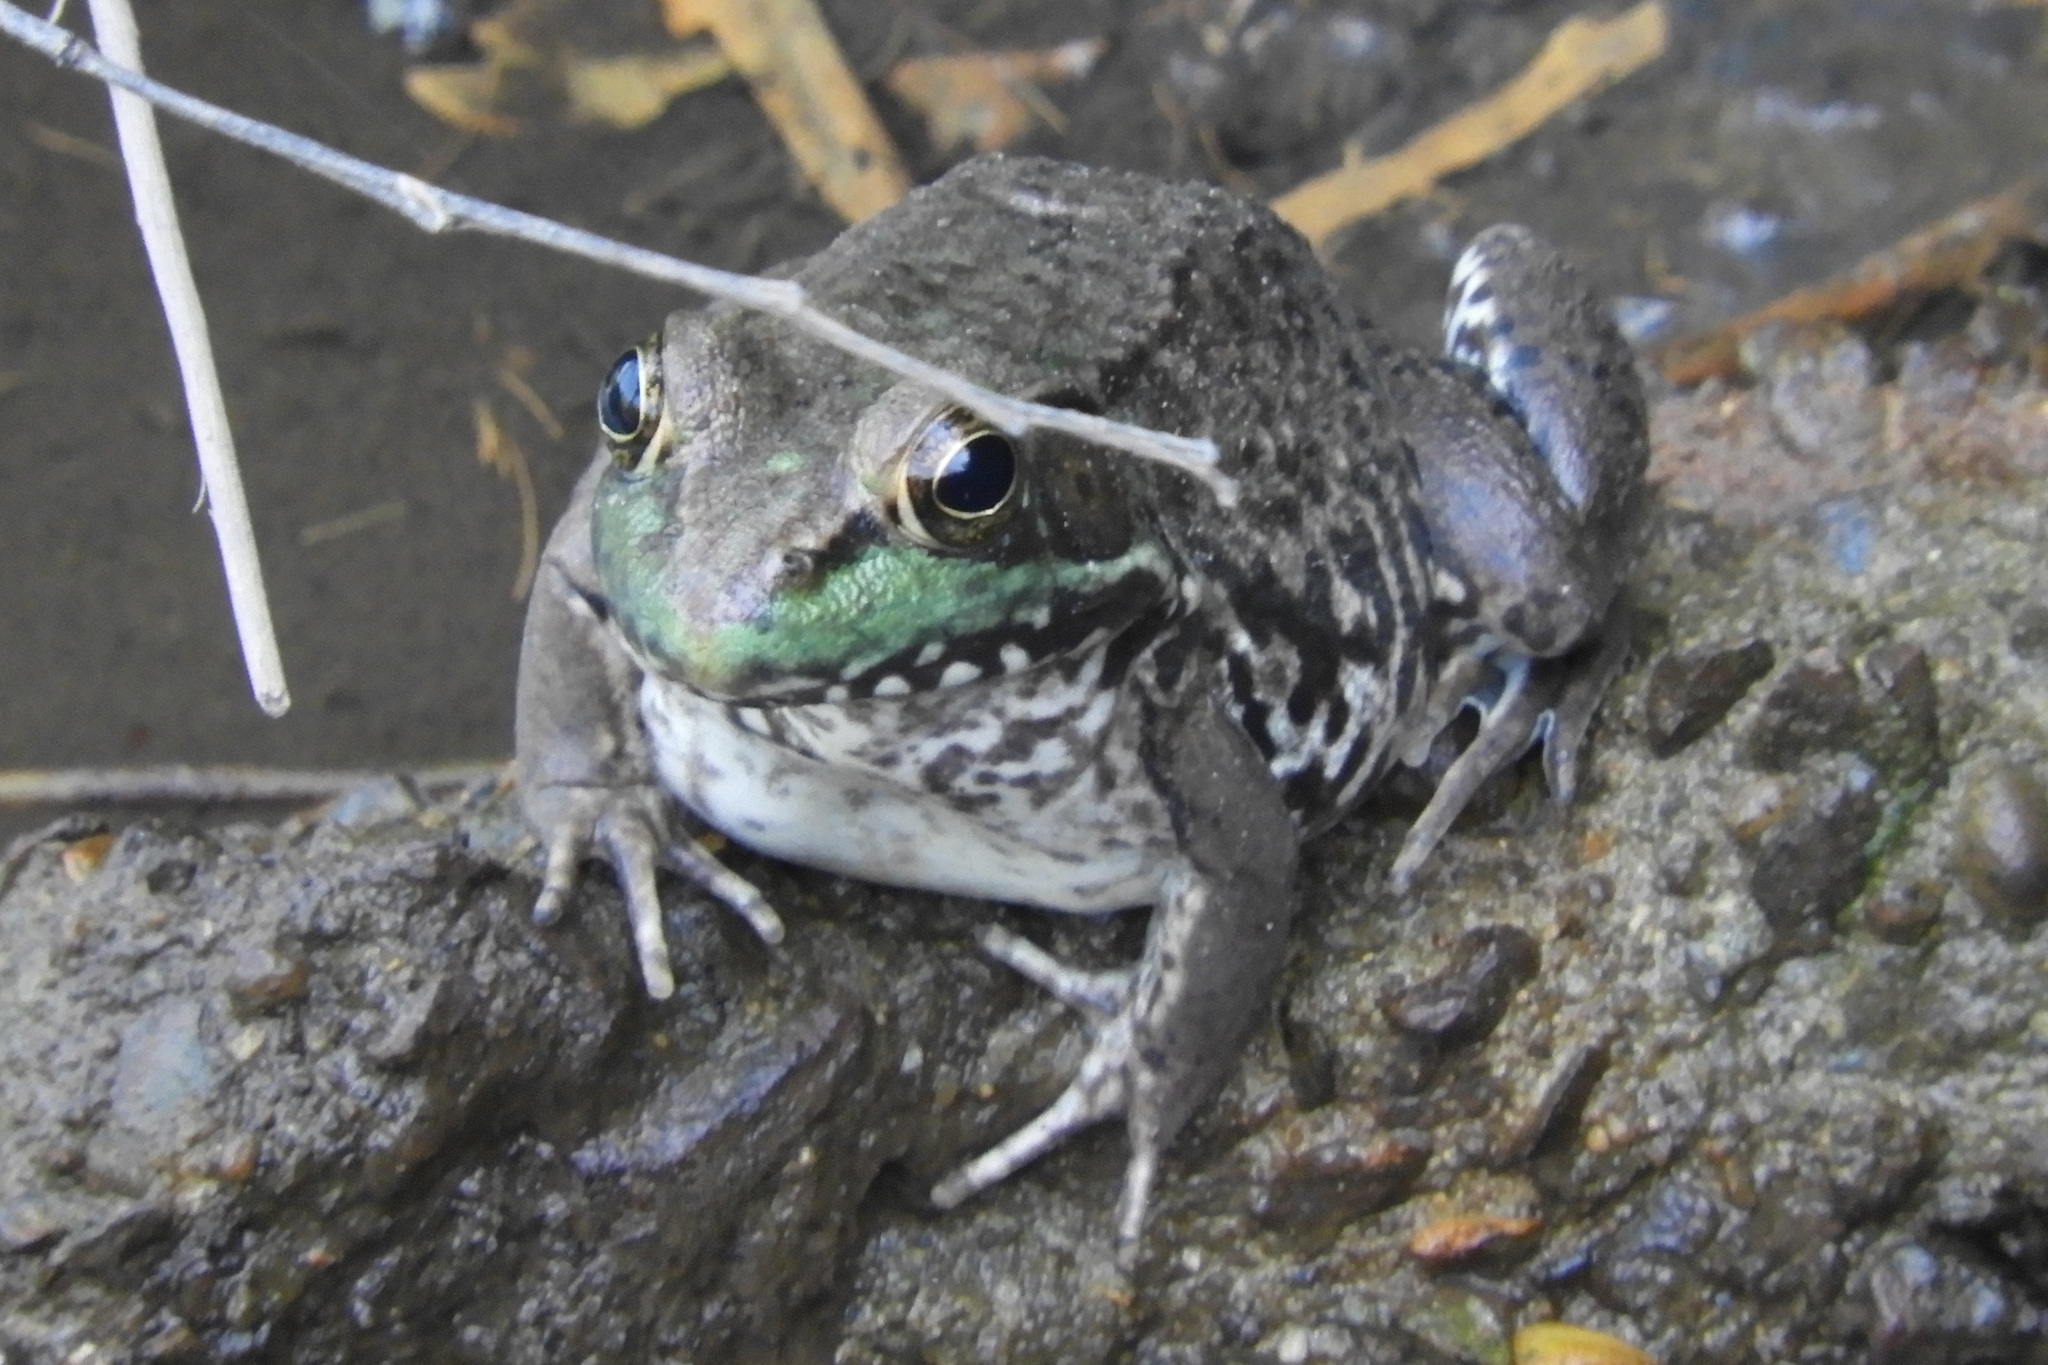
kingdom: Animalia
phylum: Chordata
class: Amphibia
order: Anura
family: Ranidae
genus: Lithobates
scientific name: Lithobates clamitans
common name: Green frog
